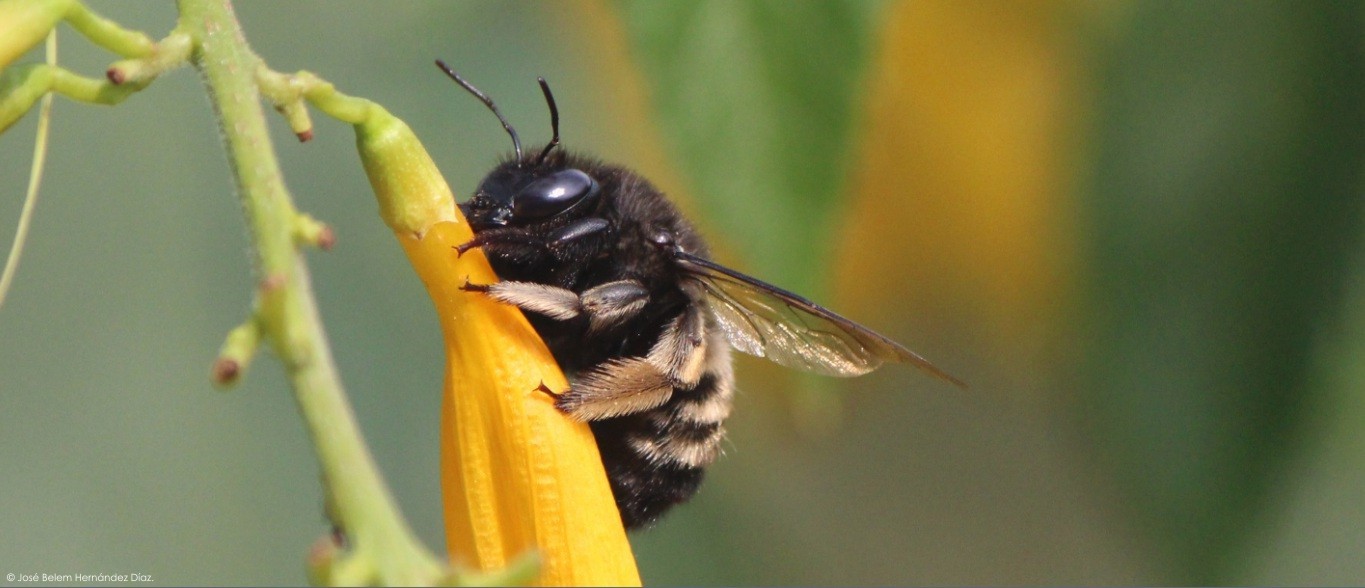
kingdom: Animalia
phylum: Arthropoda
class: Insecta
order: Hymenoptera
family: Apidae
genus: Xylocopa
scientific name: Xylocopa tabaniformis
